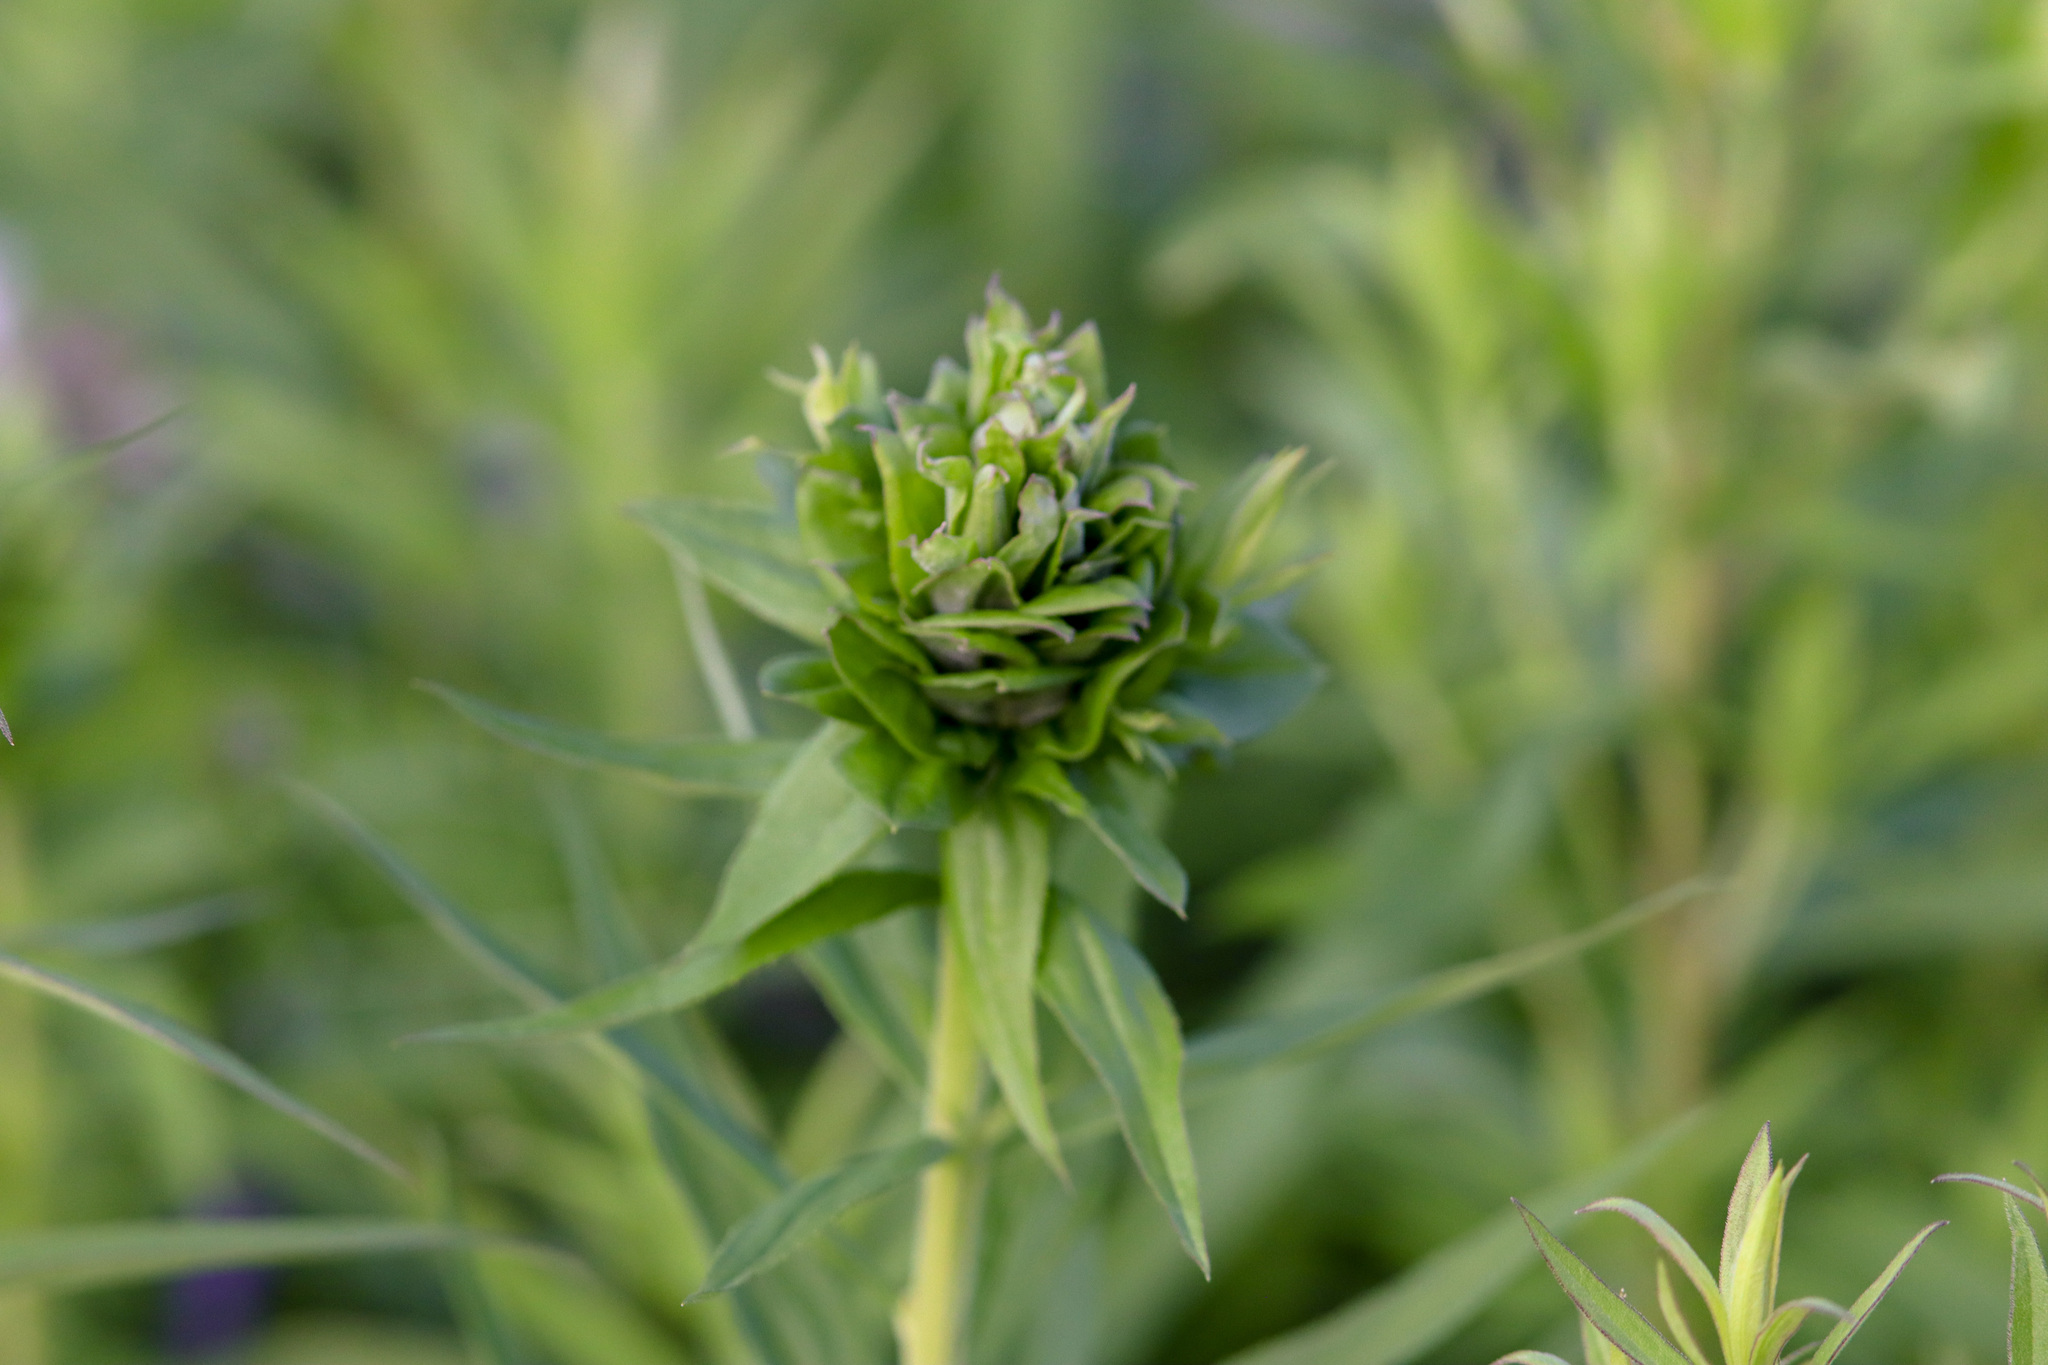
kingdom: Animalia
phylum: Arthropoda
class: Insecta
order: Diptera
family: Cecidomyiidae
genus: Rhopalomyia
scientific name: Rhopalomyia solidaginis
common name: Goldenrod bunch gall midge
